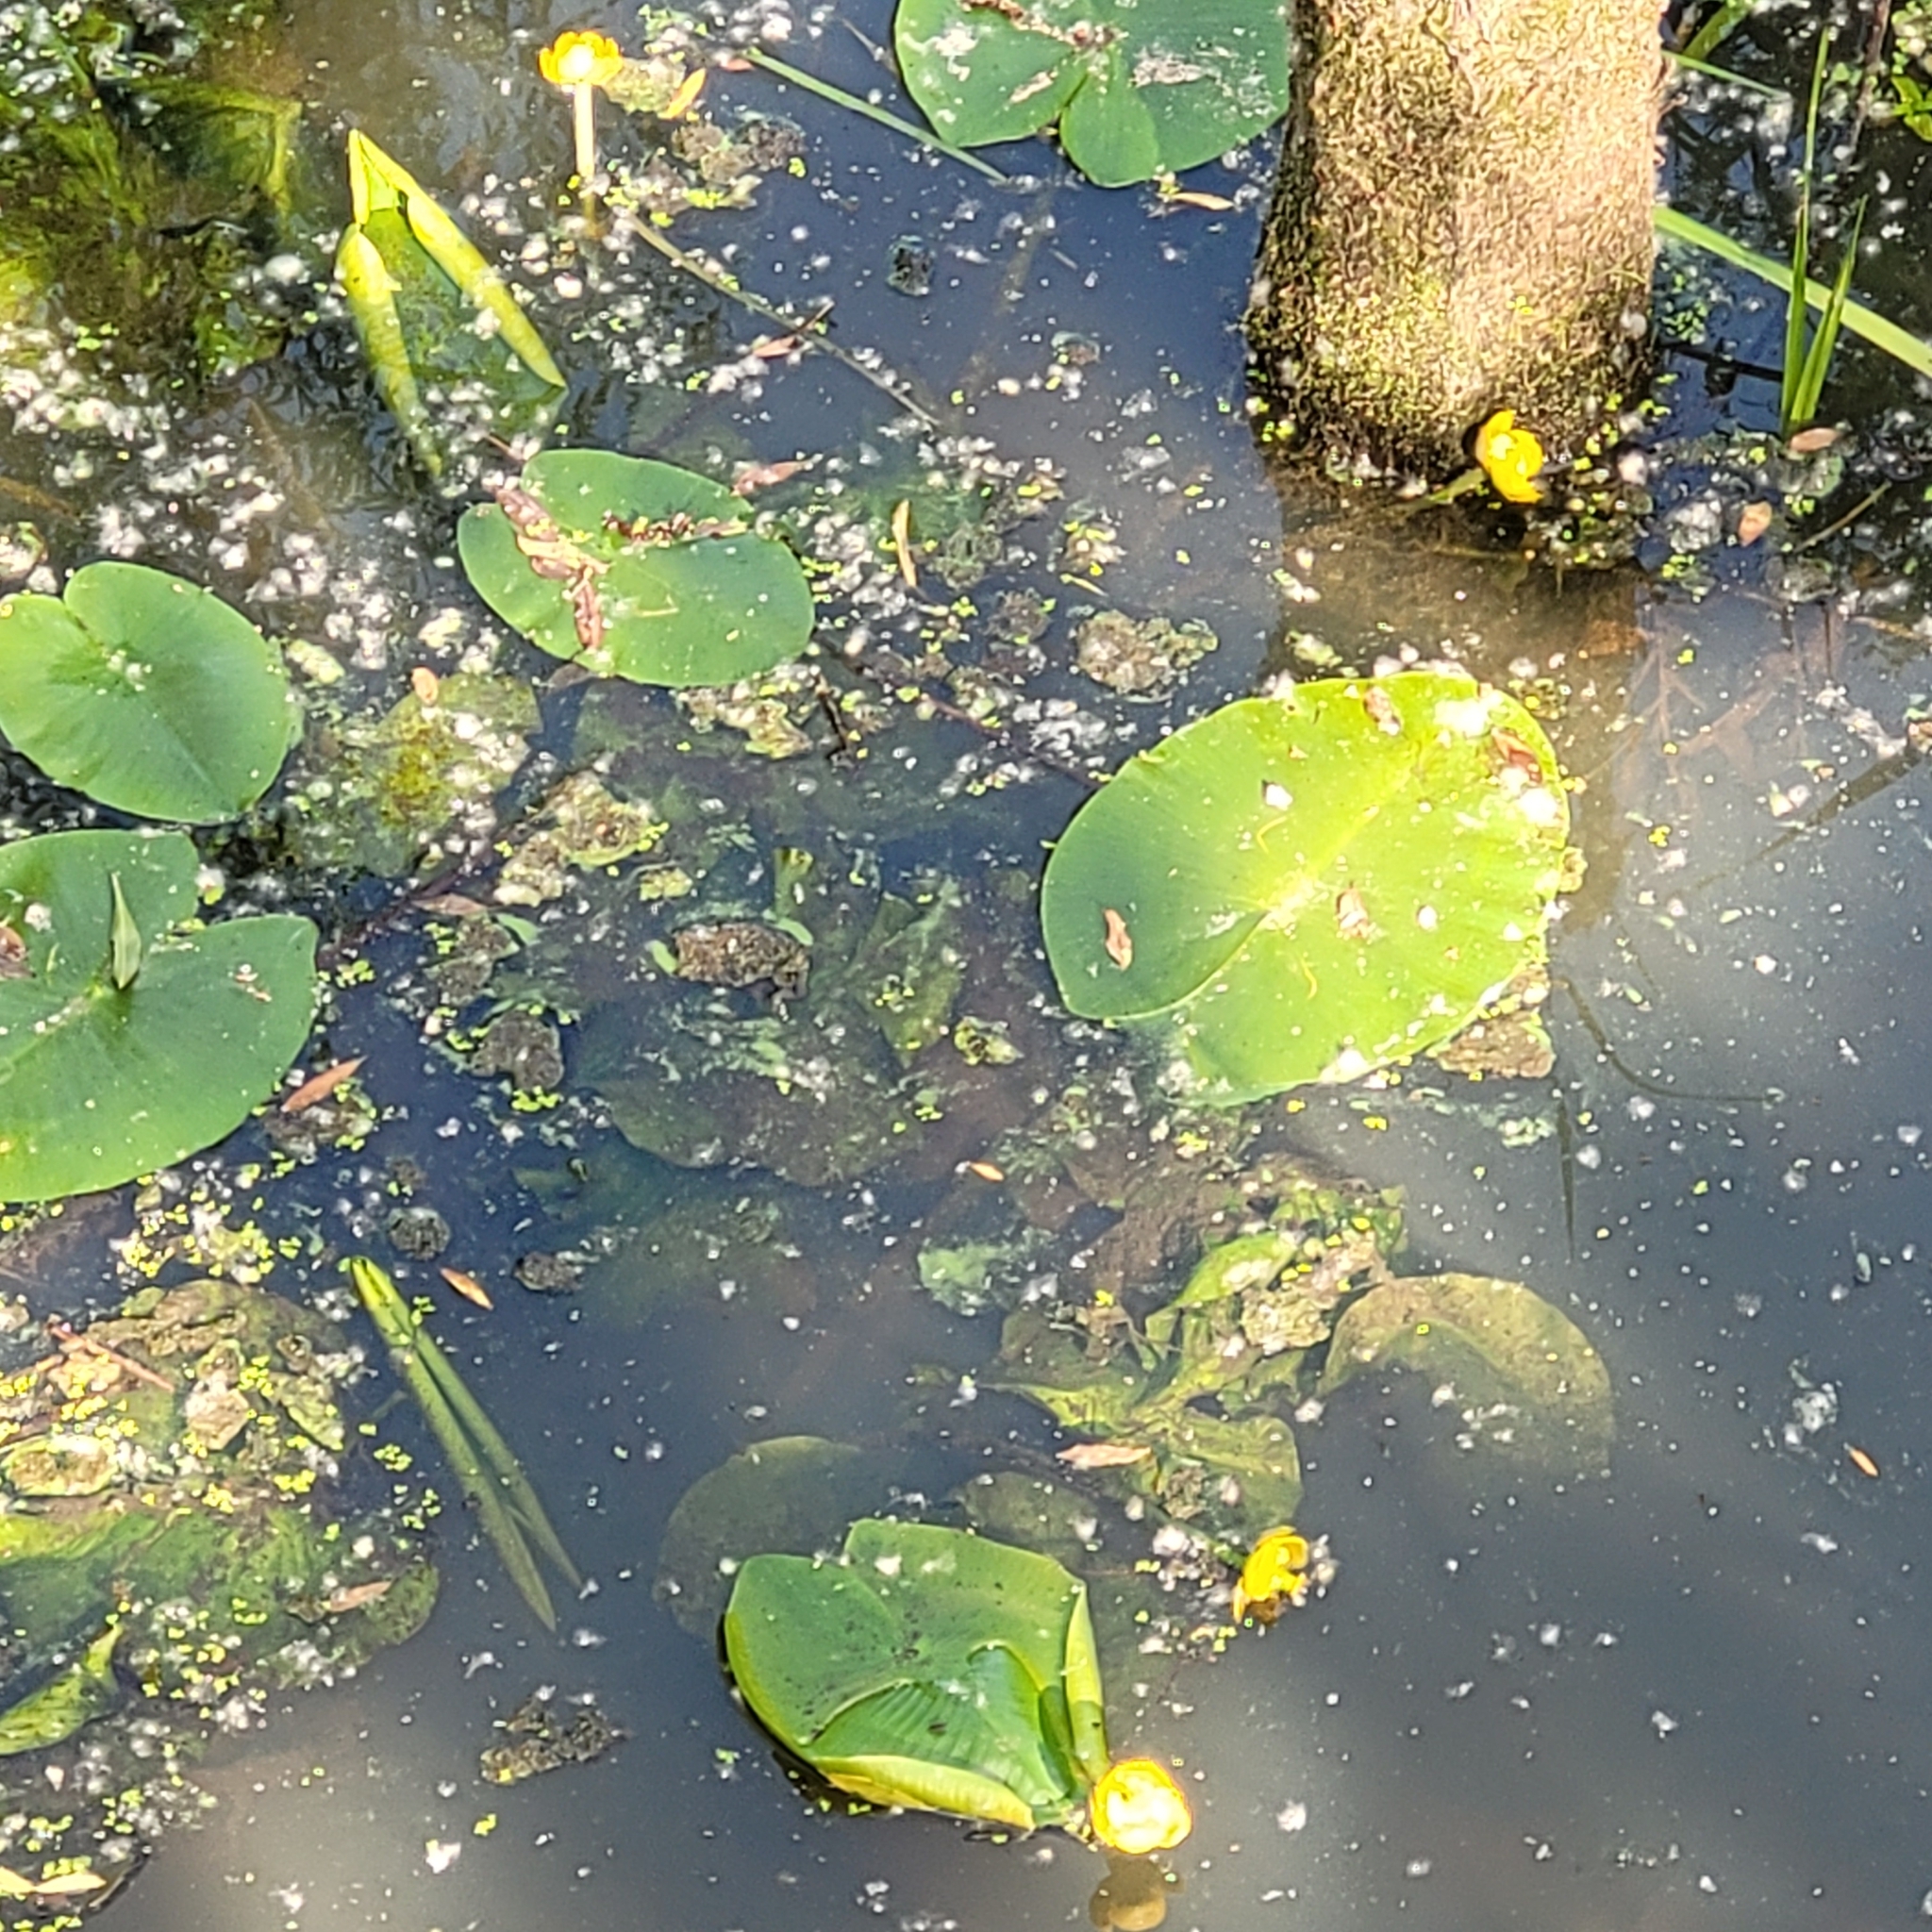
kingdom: Plantae
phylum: Tracheophyta
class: Magnoliopsida
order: Nymphaeales
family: Nymphaeaceae
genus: Nuphar
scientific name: Nuphar lutea
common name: Yellow water-lily
